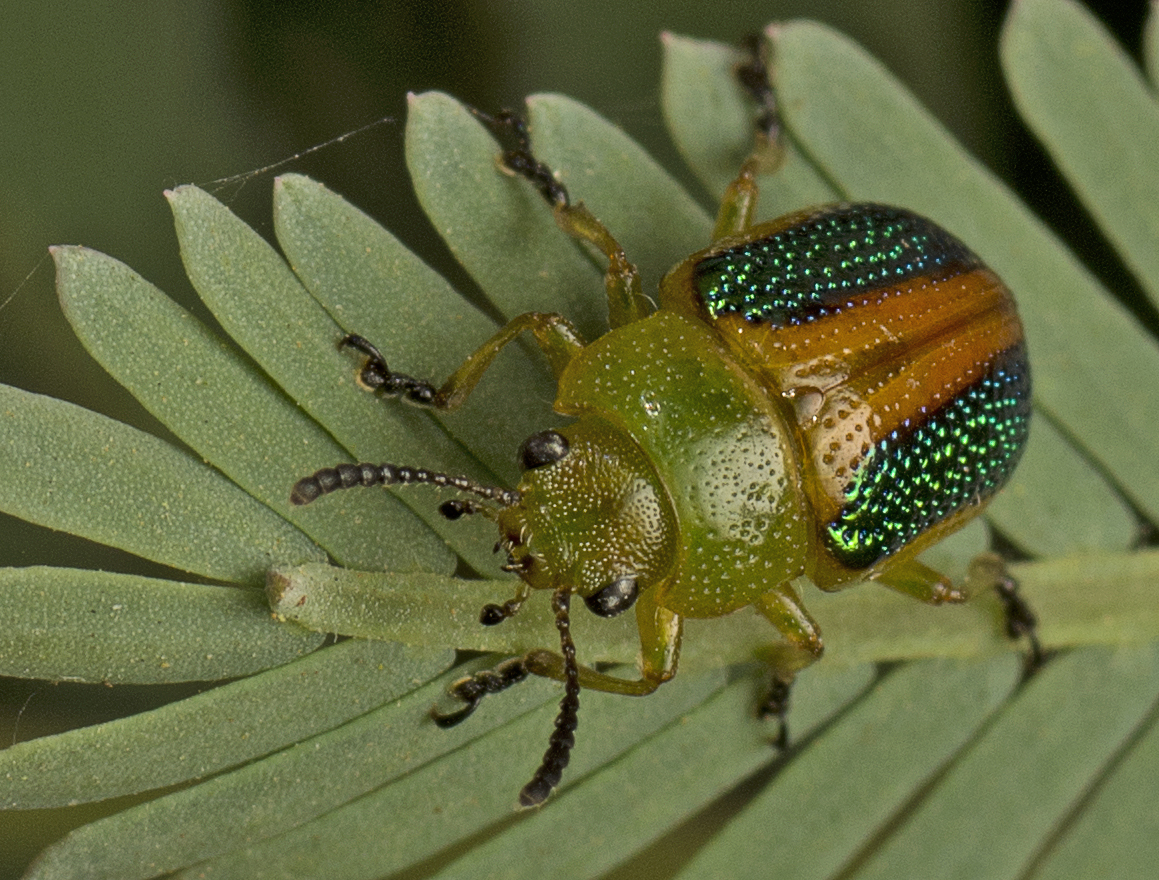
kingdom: Animalia
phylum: Arthropoda
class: Insecta
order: Coleoptera
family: Chrysomelidae
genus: Calomela
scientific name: Calomela
